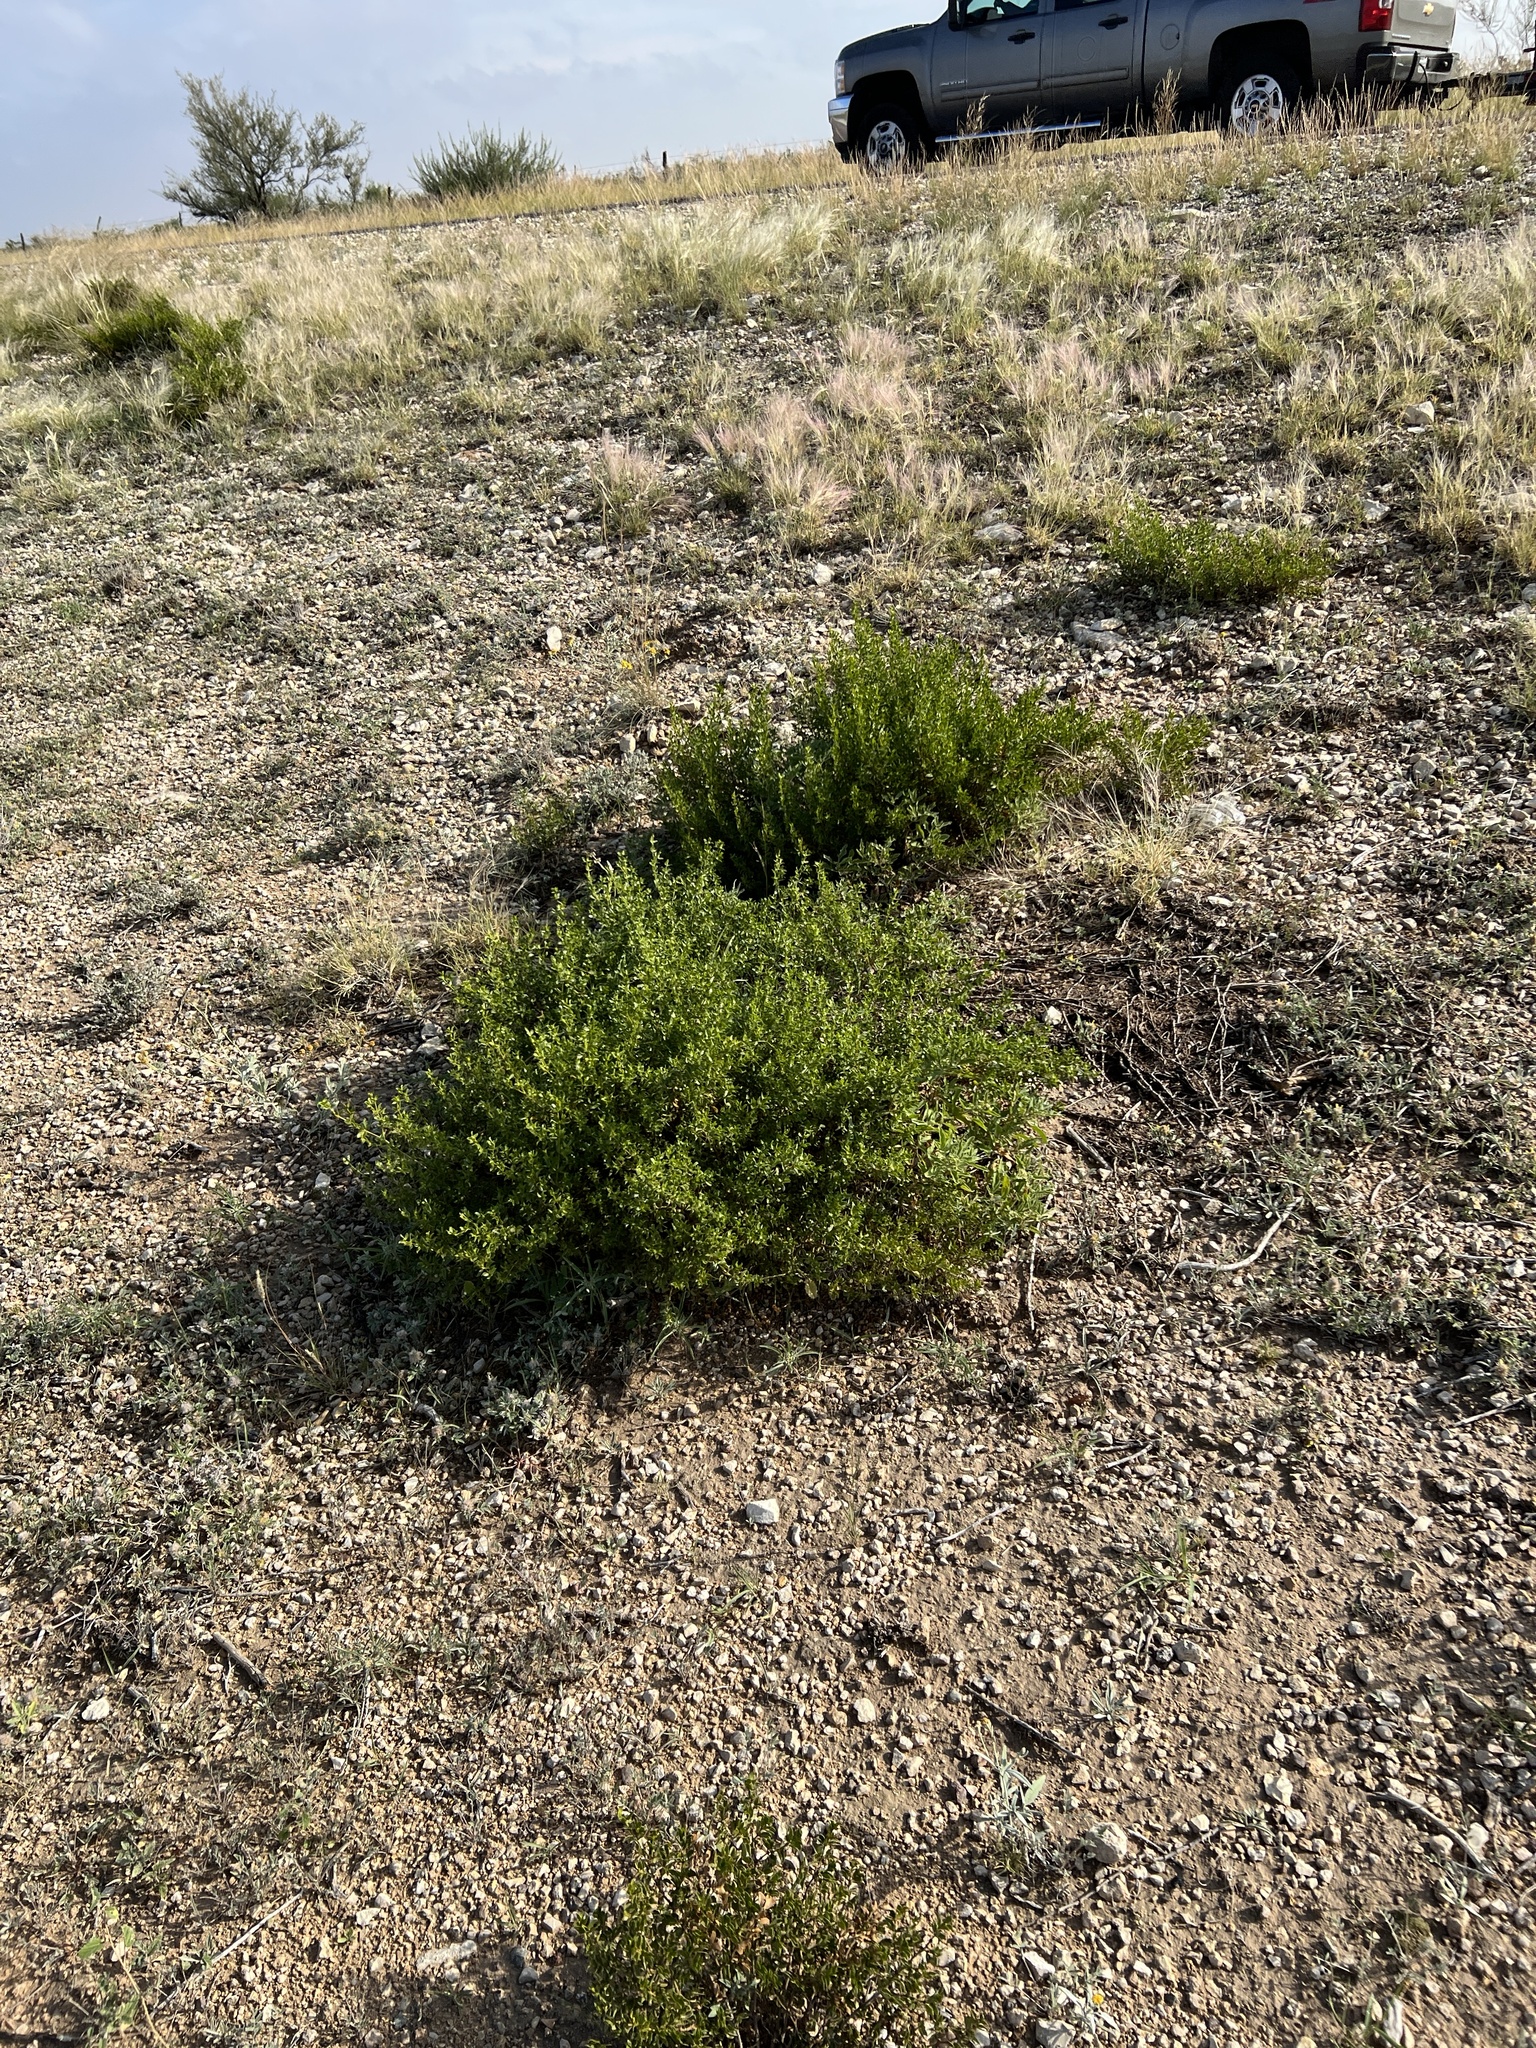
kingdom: Plantae
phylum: Tracheophyta
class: Magnoliopsida
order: Zygophyllales
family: Zygophyllaceae
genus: Larrea
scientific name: Larrea tridentata
